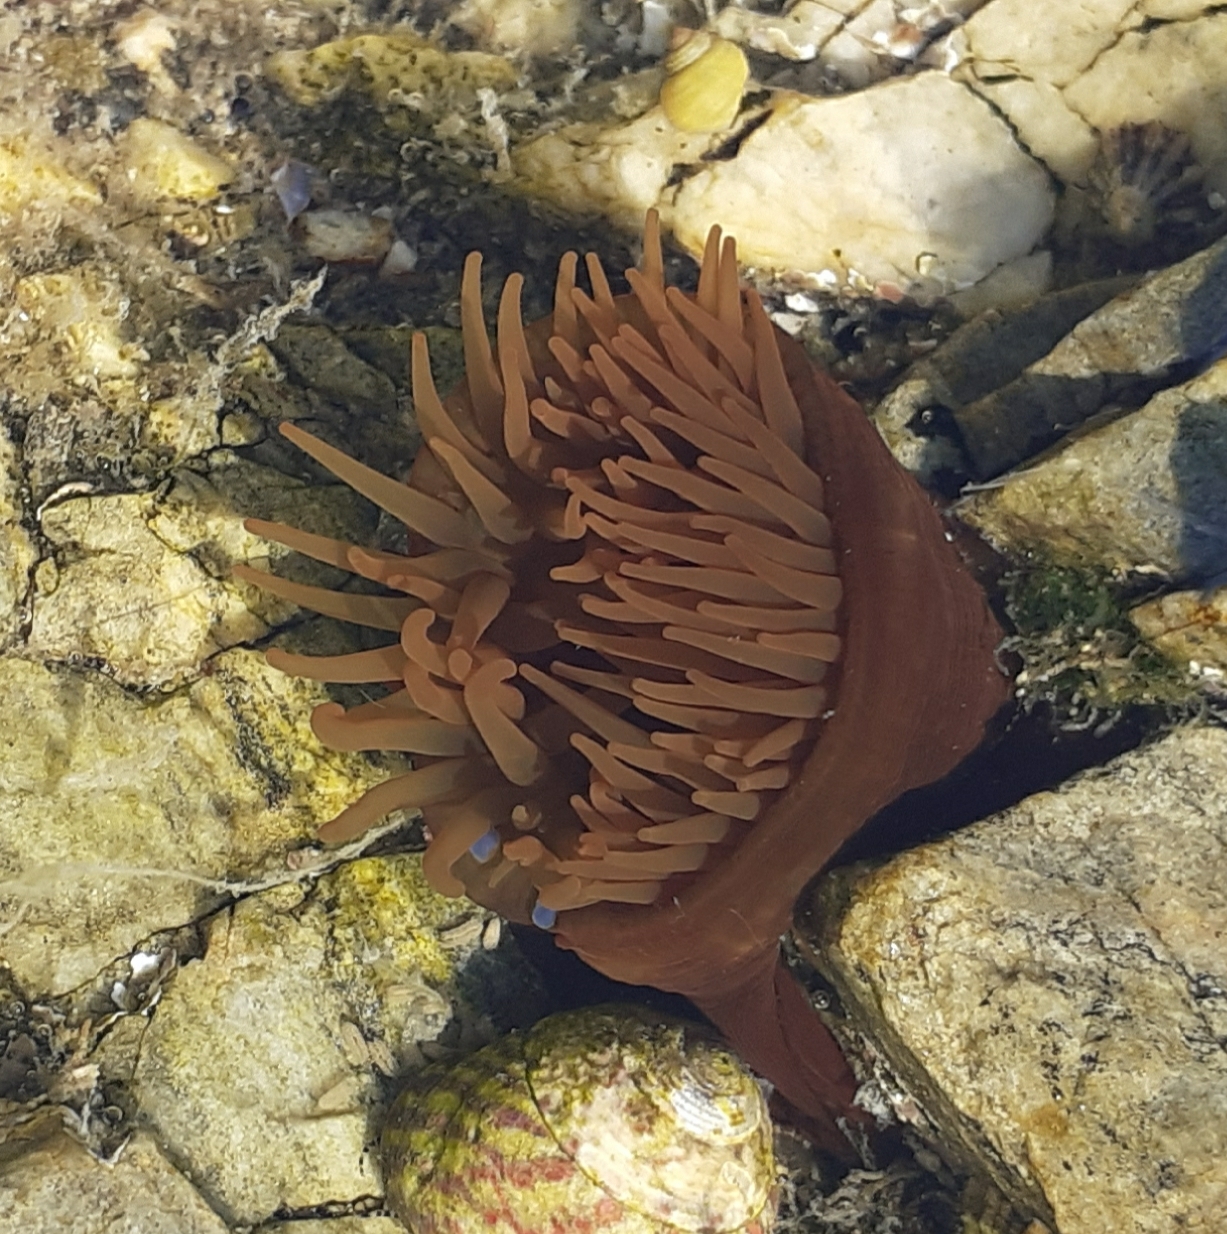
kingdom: Animalia
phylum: Cnidaria
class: Anthozoa
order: Actiniaria
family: Actiniidae
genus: Actinia
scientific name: Actinia equina
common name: Beadlet anemone
